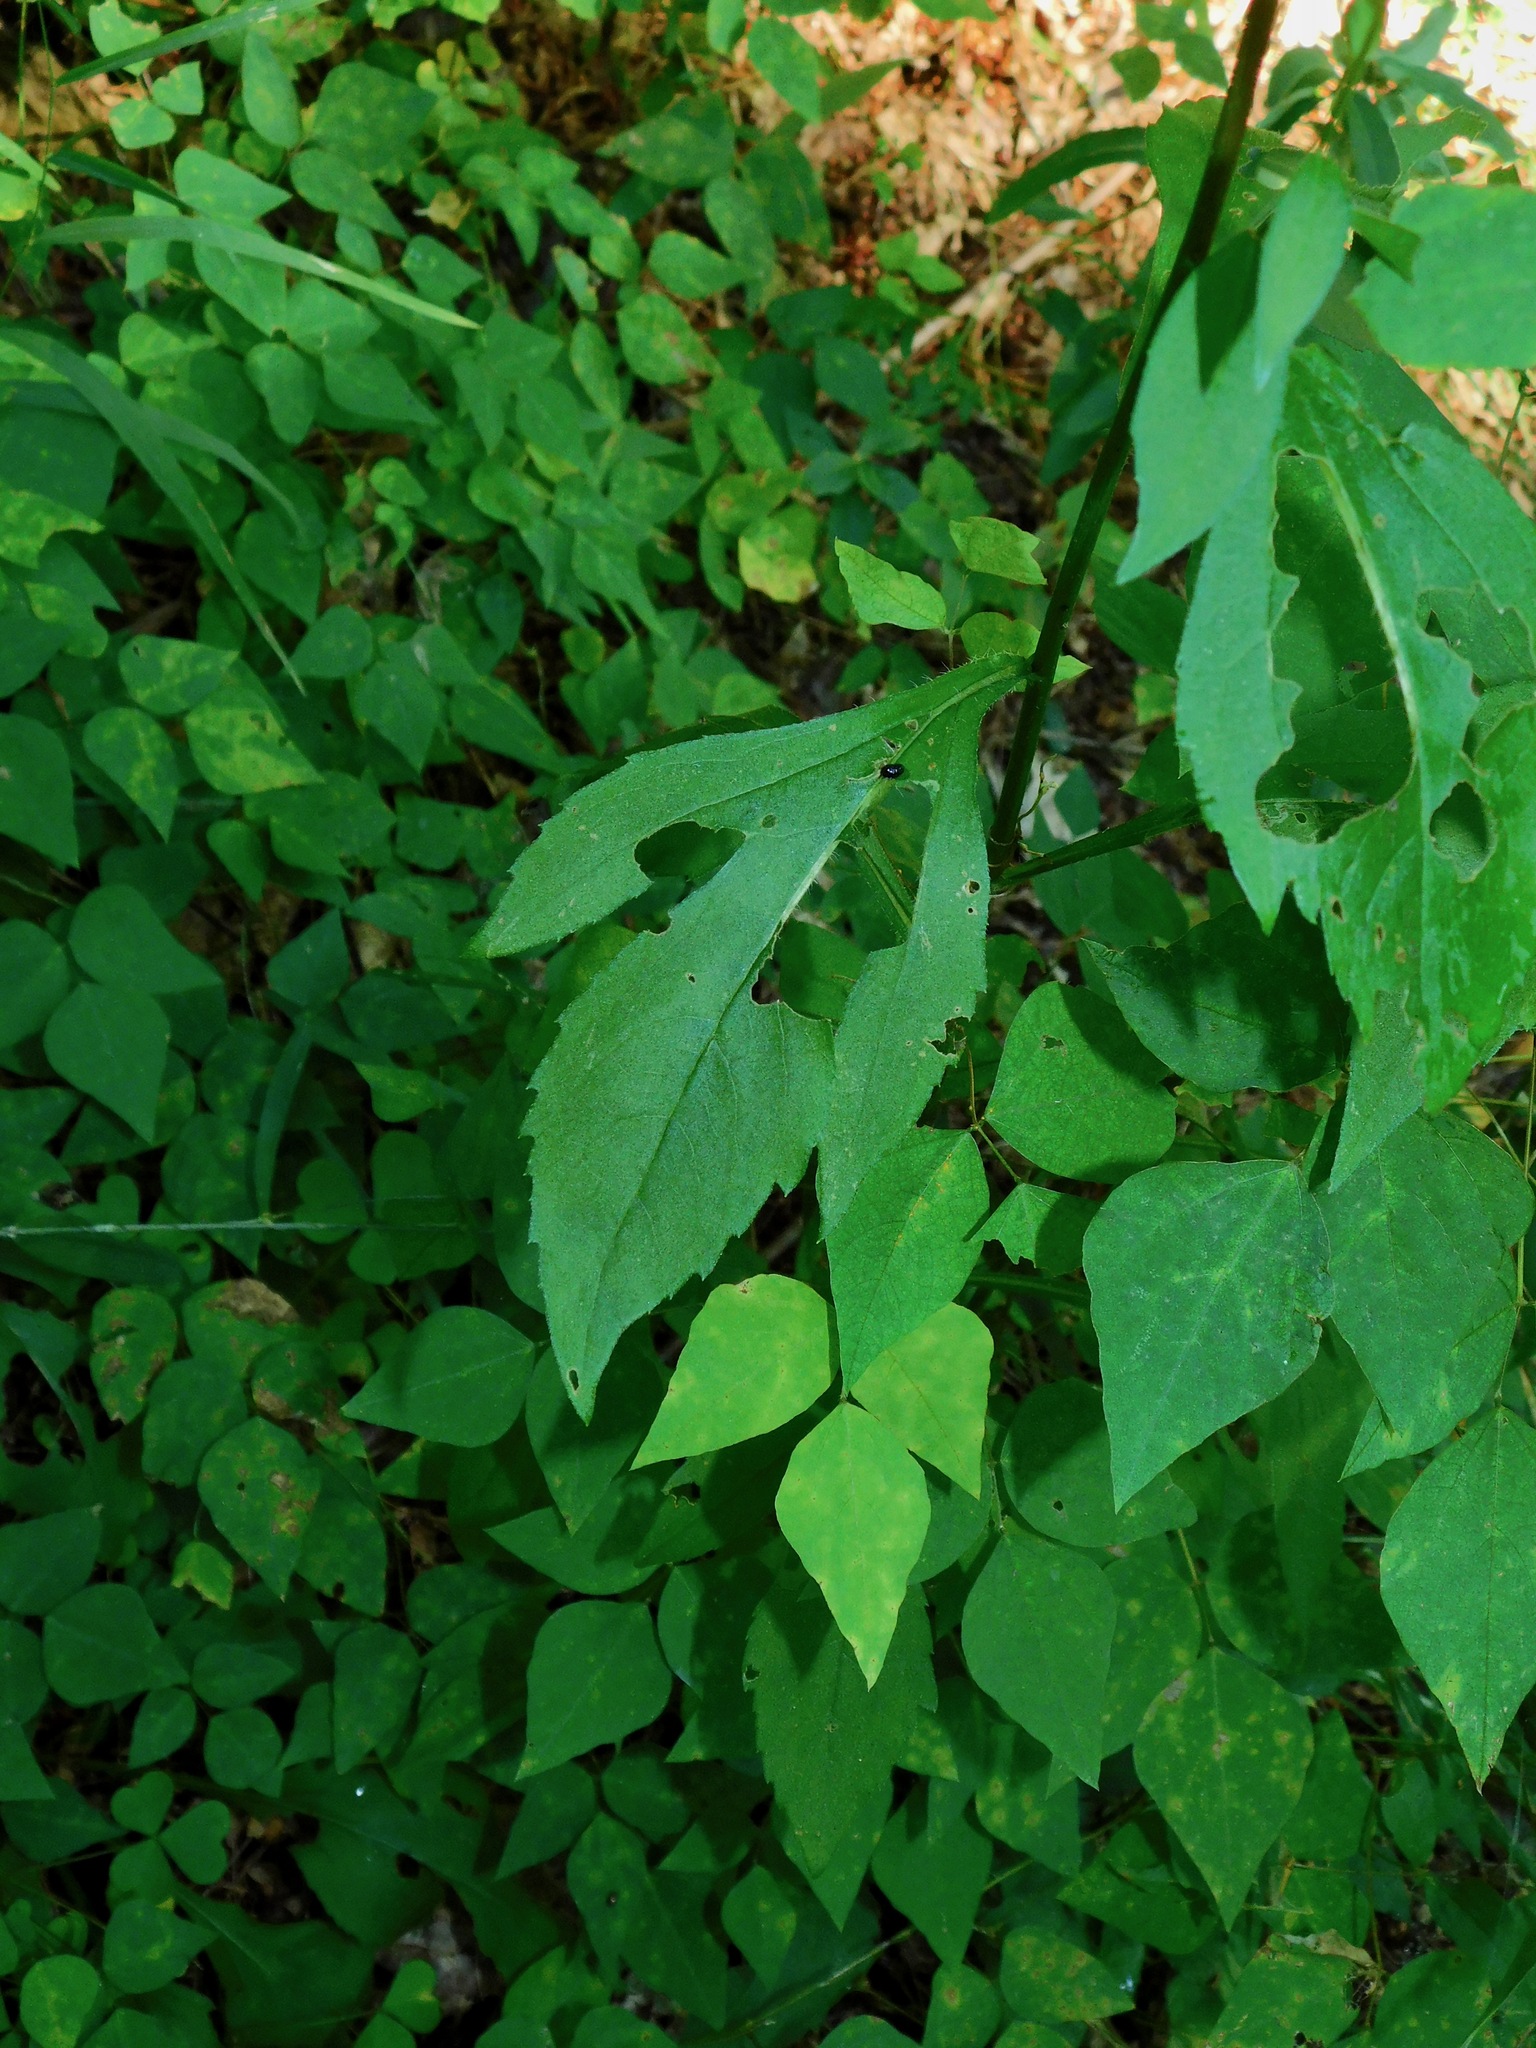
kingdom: Plantae
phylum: Tracheophyta
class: Magnoliopsida
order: Asterales
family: Asteraceae
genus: Rudbeckia
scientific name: Rudbeckia triloba
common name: Thin-leaved coneflower
